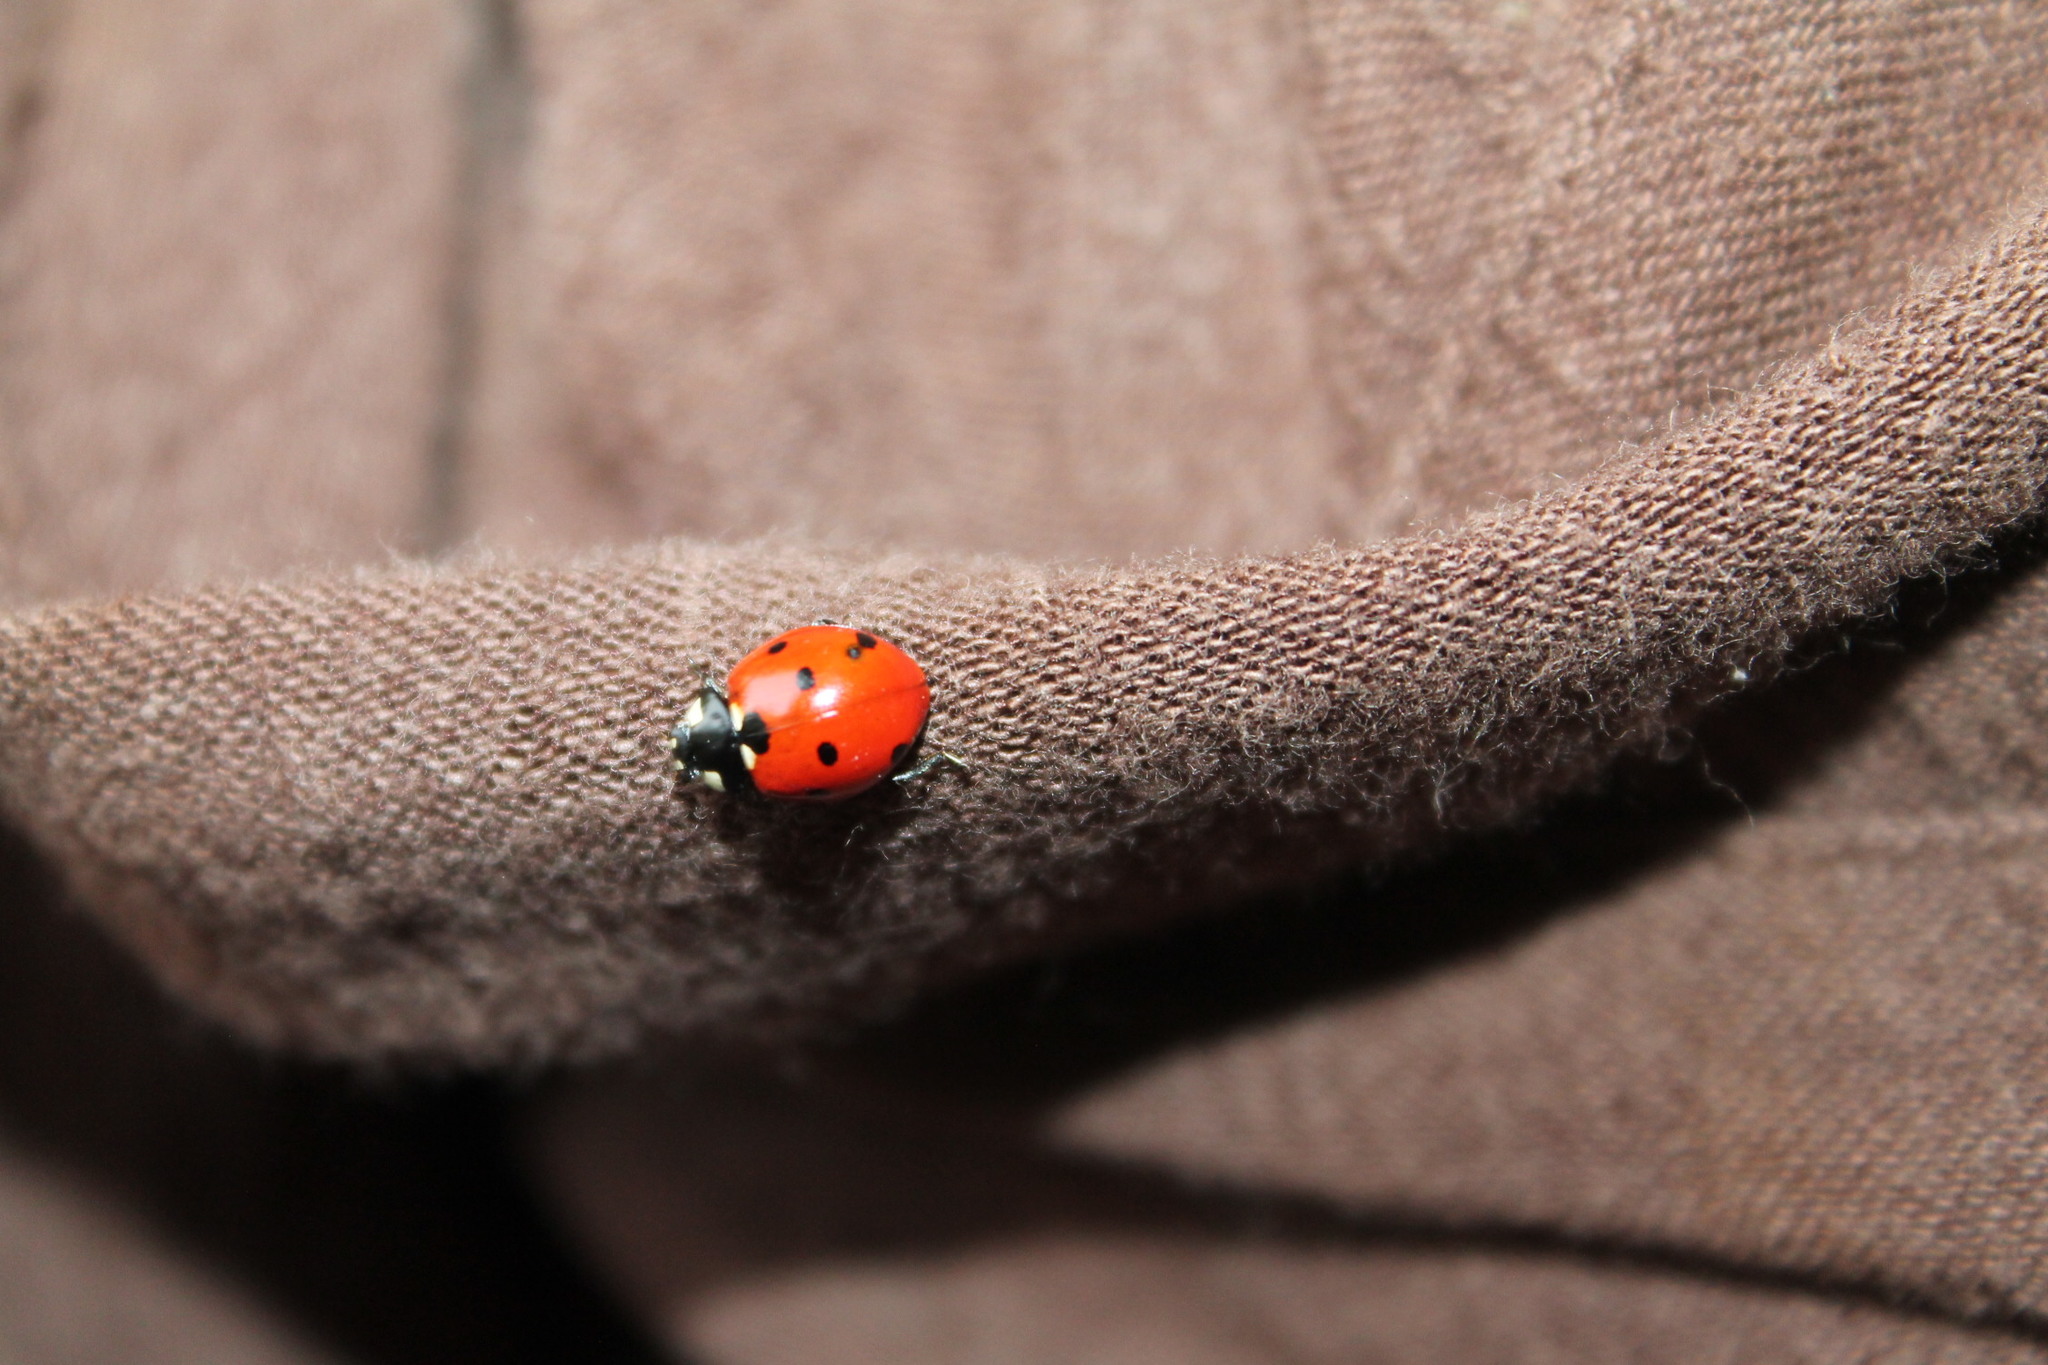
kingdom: Animalia
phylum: Arthropoda
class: Insecta
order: Coleoptera
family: Coccinellidae
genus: Coccinella
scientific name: Coccinella septempunctata
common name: Sevenspotted lady beetle
